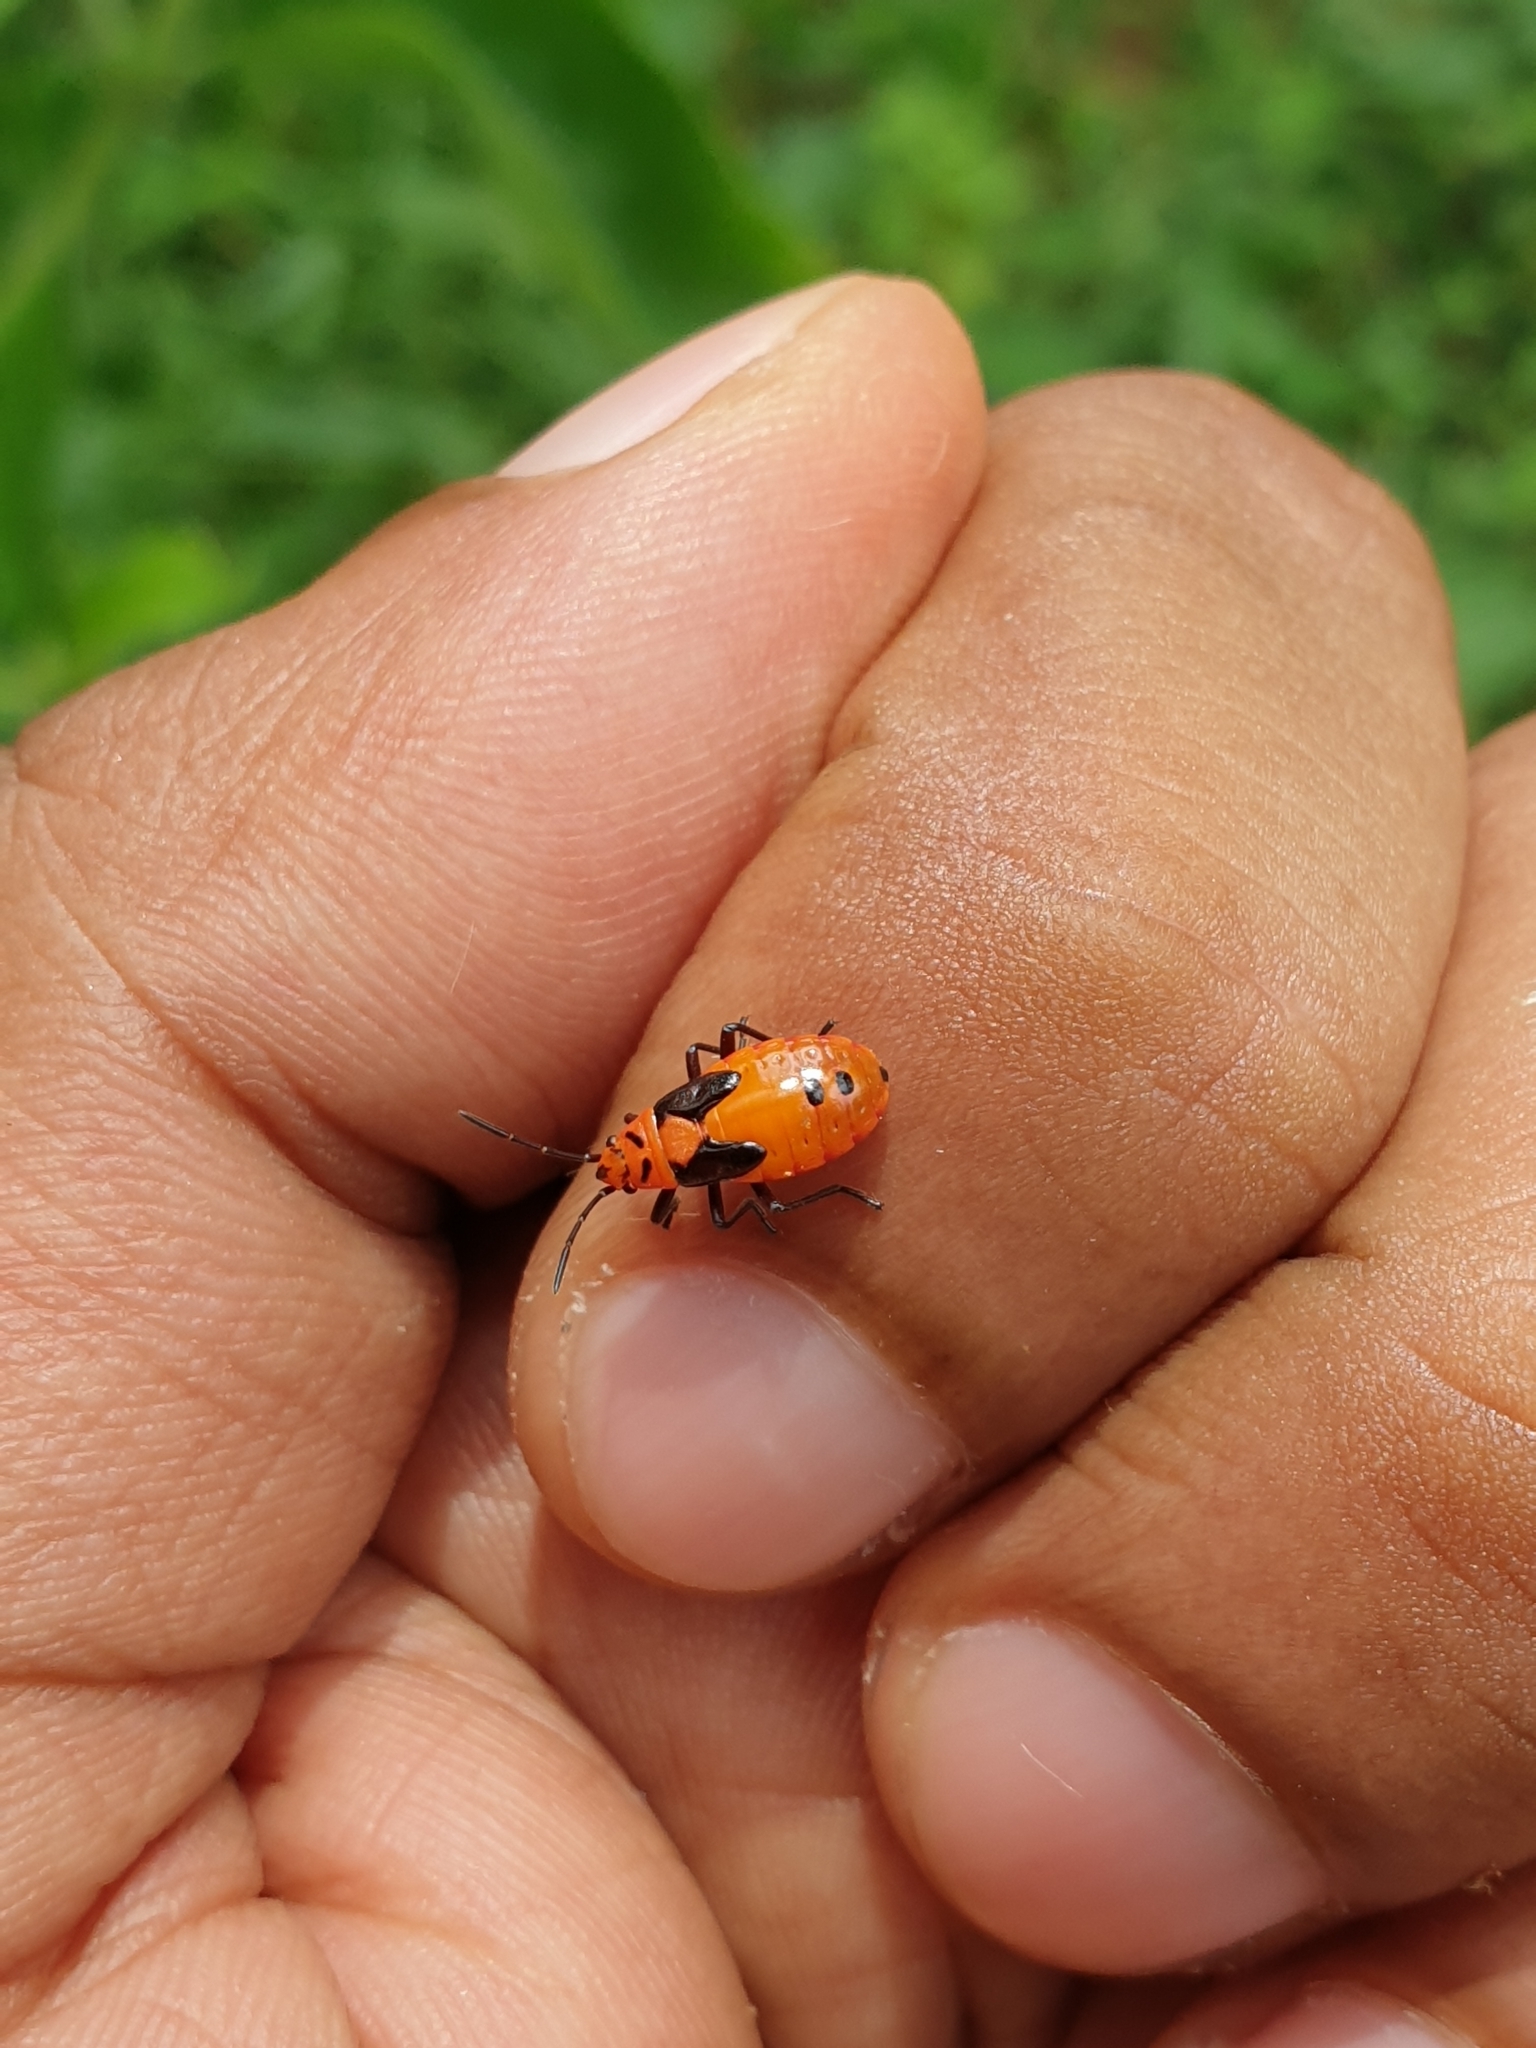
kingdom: Animalia
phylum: Arthropoda
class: Insecta
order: Hemiptera
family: Lygaeidae
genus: Spilostethus
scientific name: Spilostethus hospes
